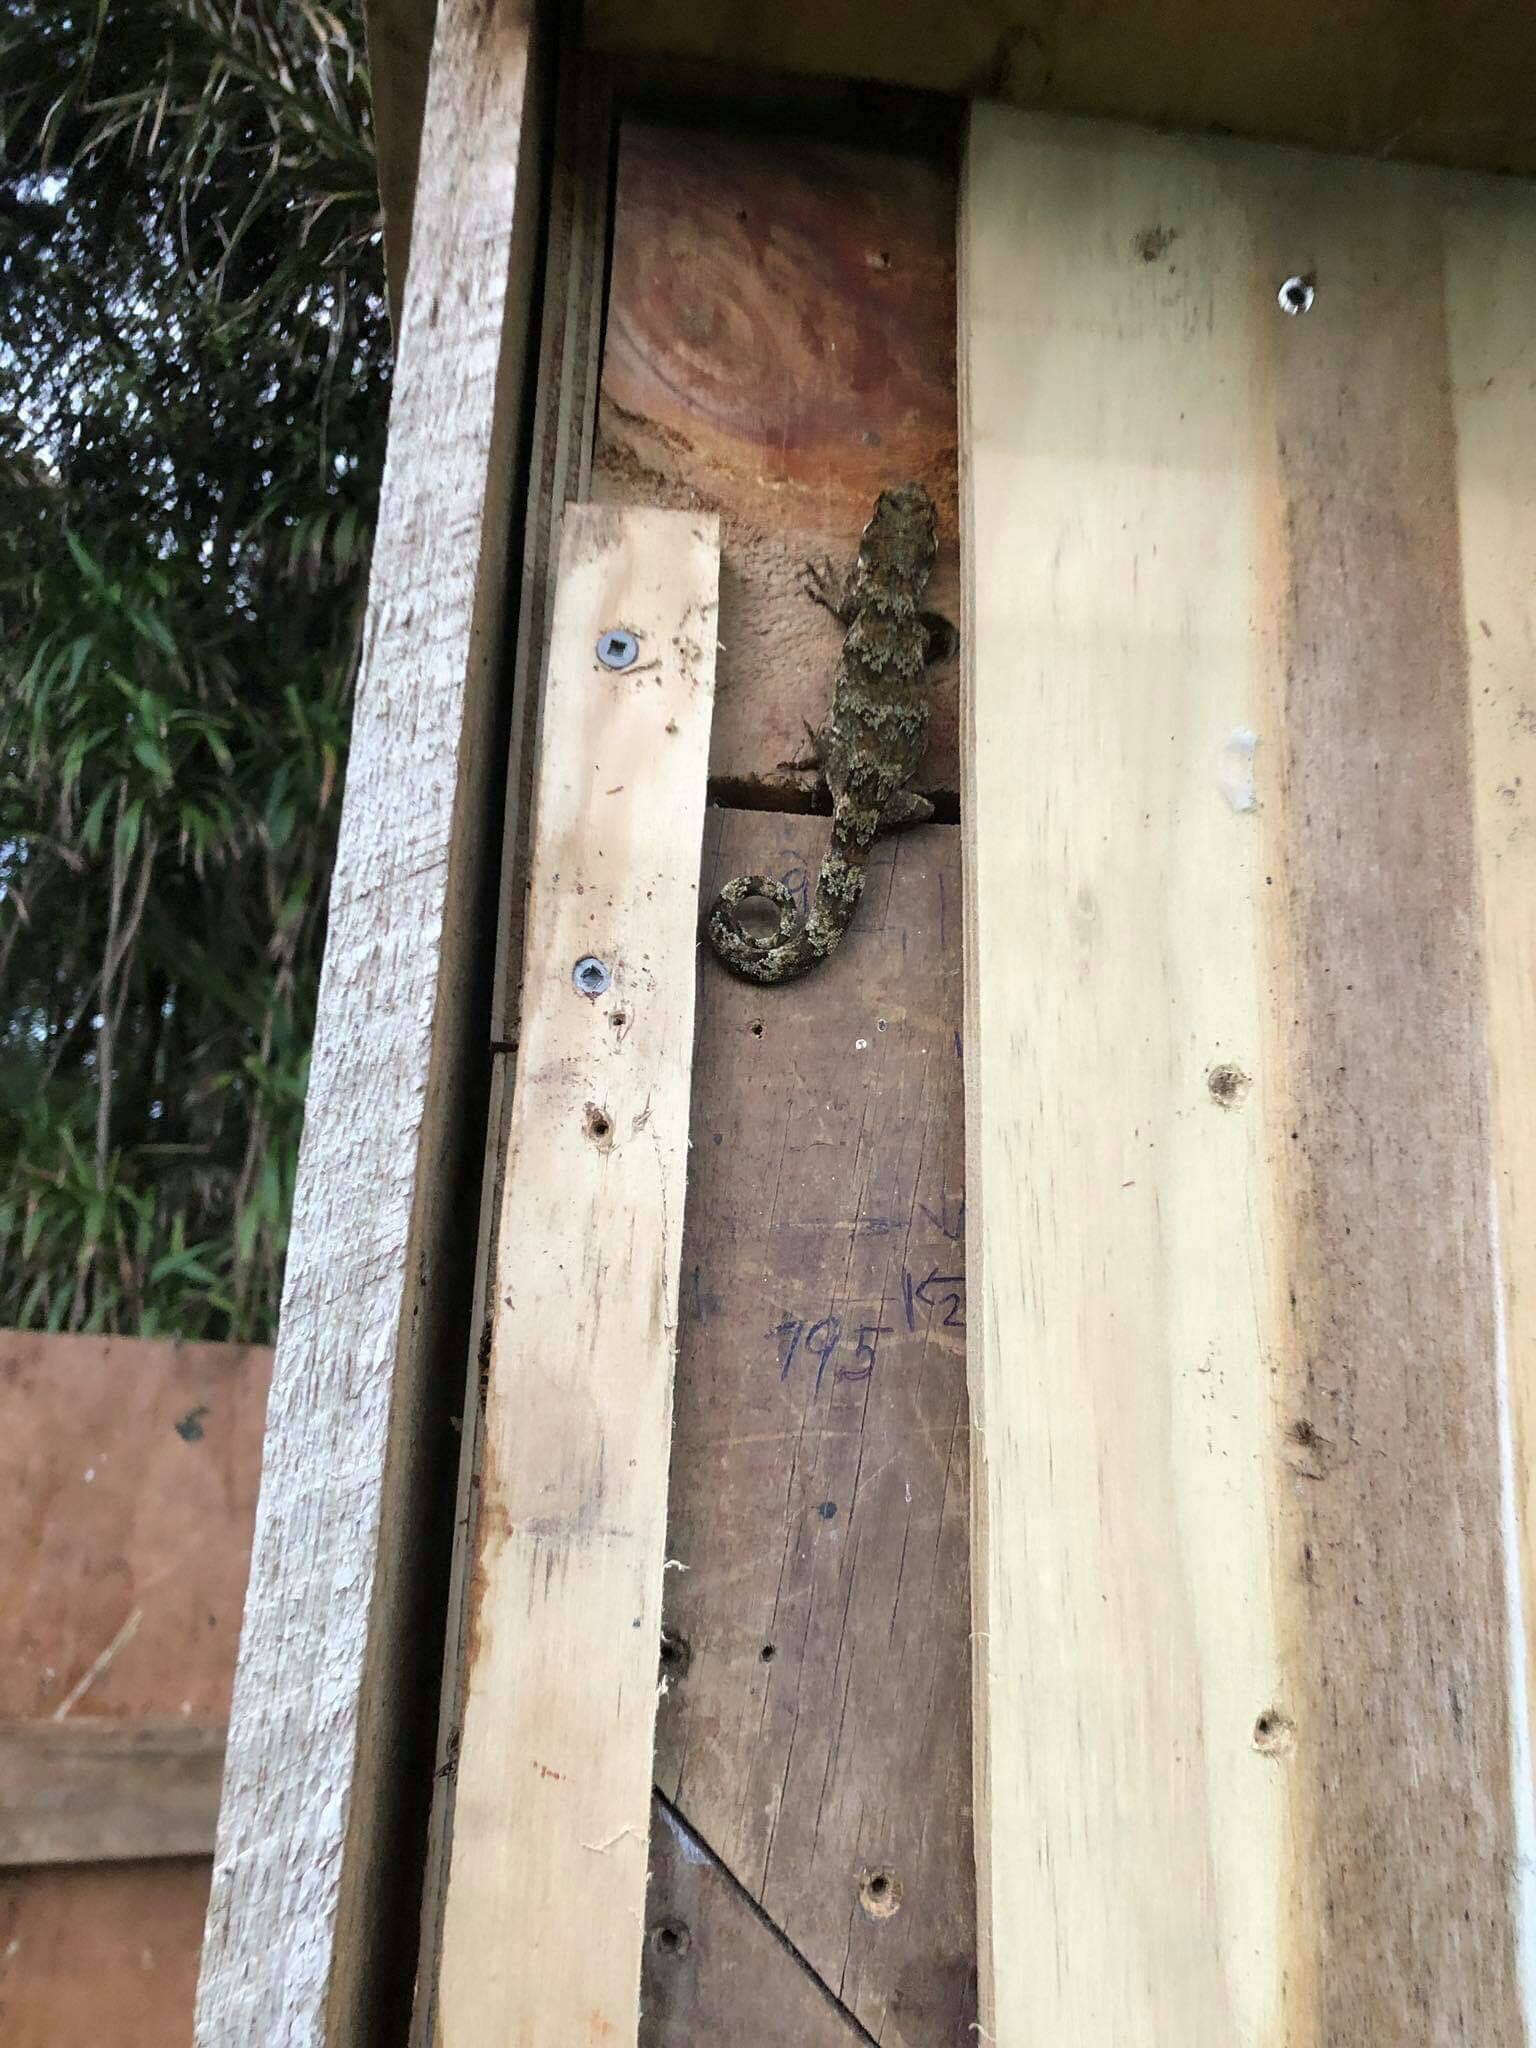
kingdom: Animalia
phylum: Chordata
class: Squamata
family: Diplodactylidae
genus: Mokopirirakau
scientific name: Mokopirirakau granulatus
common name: Forest gecko
